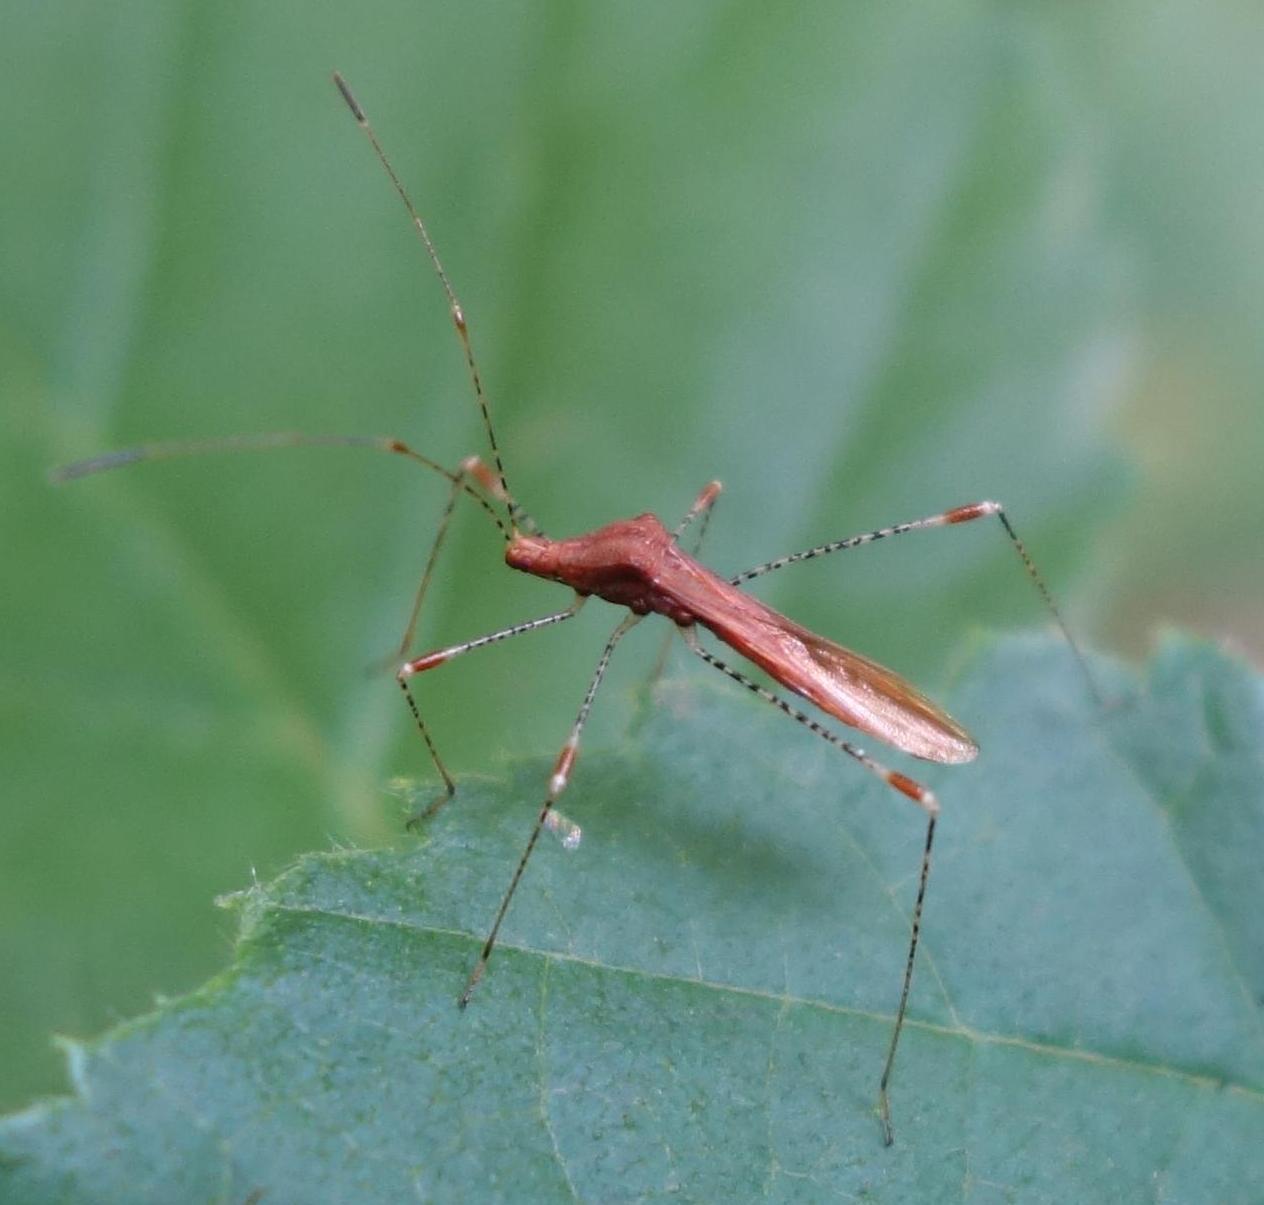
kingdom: Animalia
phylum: Arthropoda
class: Insecta
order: Hemiptera
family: Berytidae
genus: Metatropis
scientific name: Metatropis rufescens
